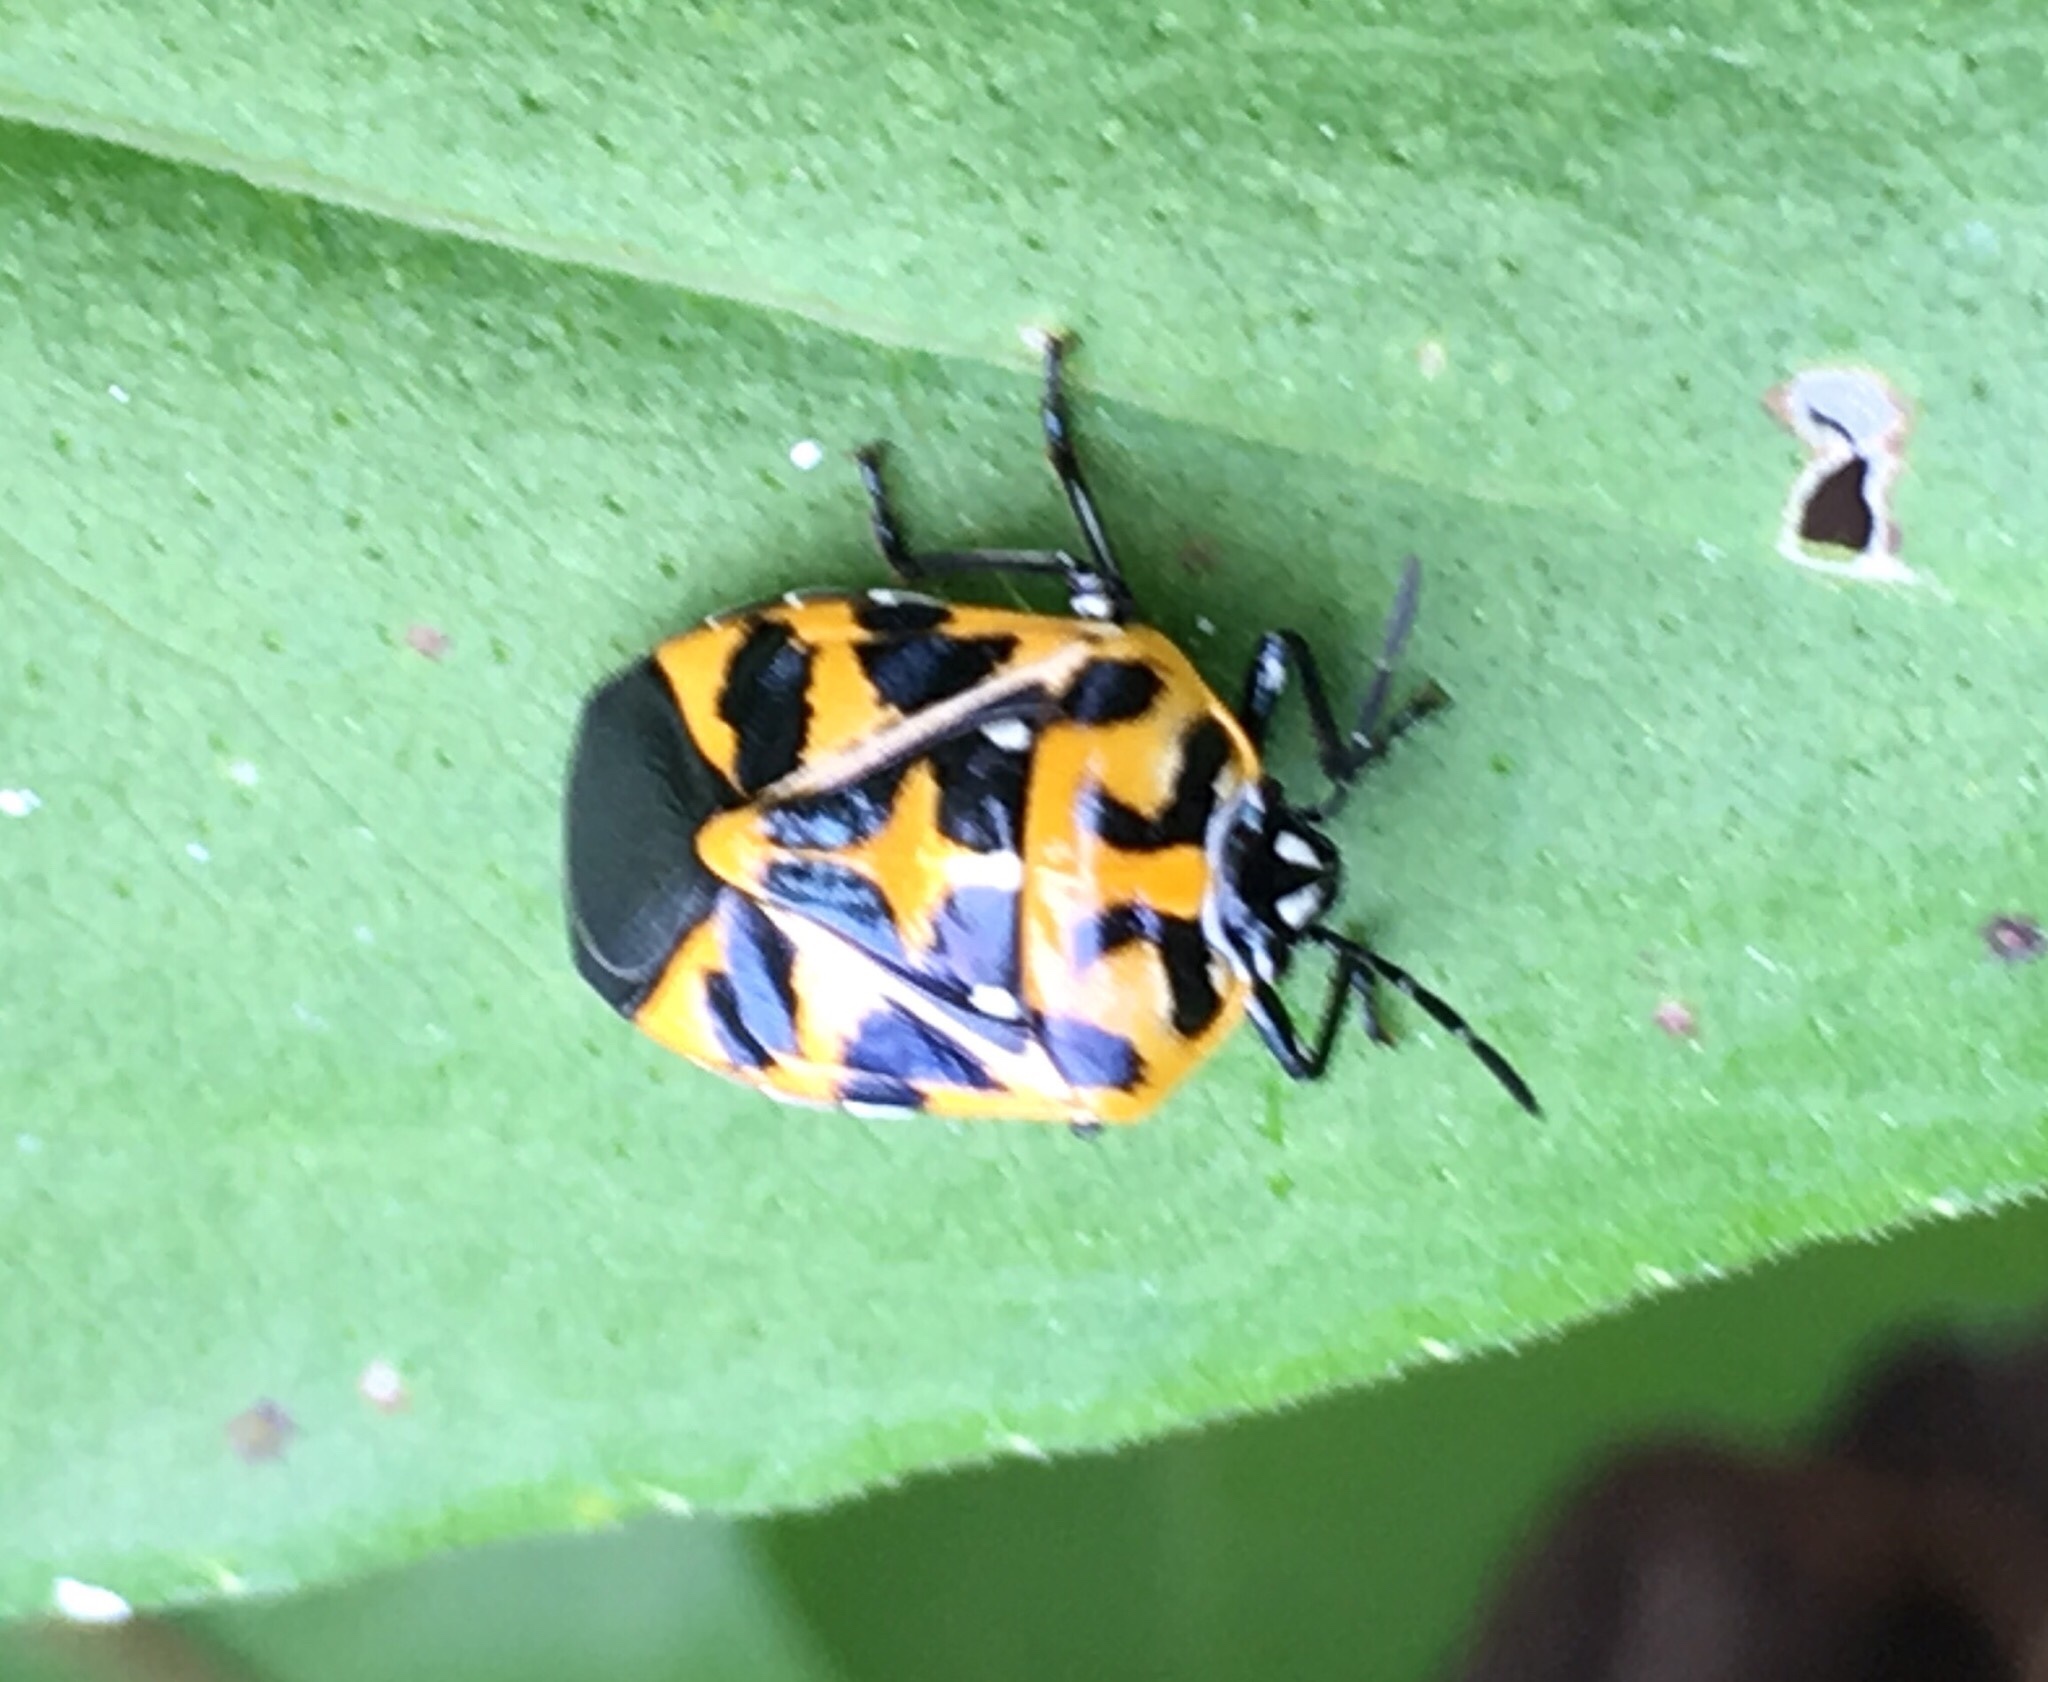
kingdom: Animalia
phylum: Arthropoda
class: Insecta
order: Hemiptera
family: Pentatomidae
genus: Murgantia
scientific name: Murgantia histrionica
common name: Harlequin bug
